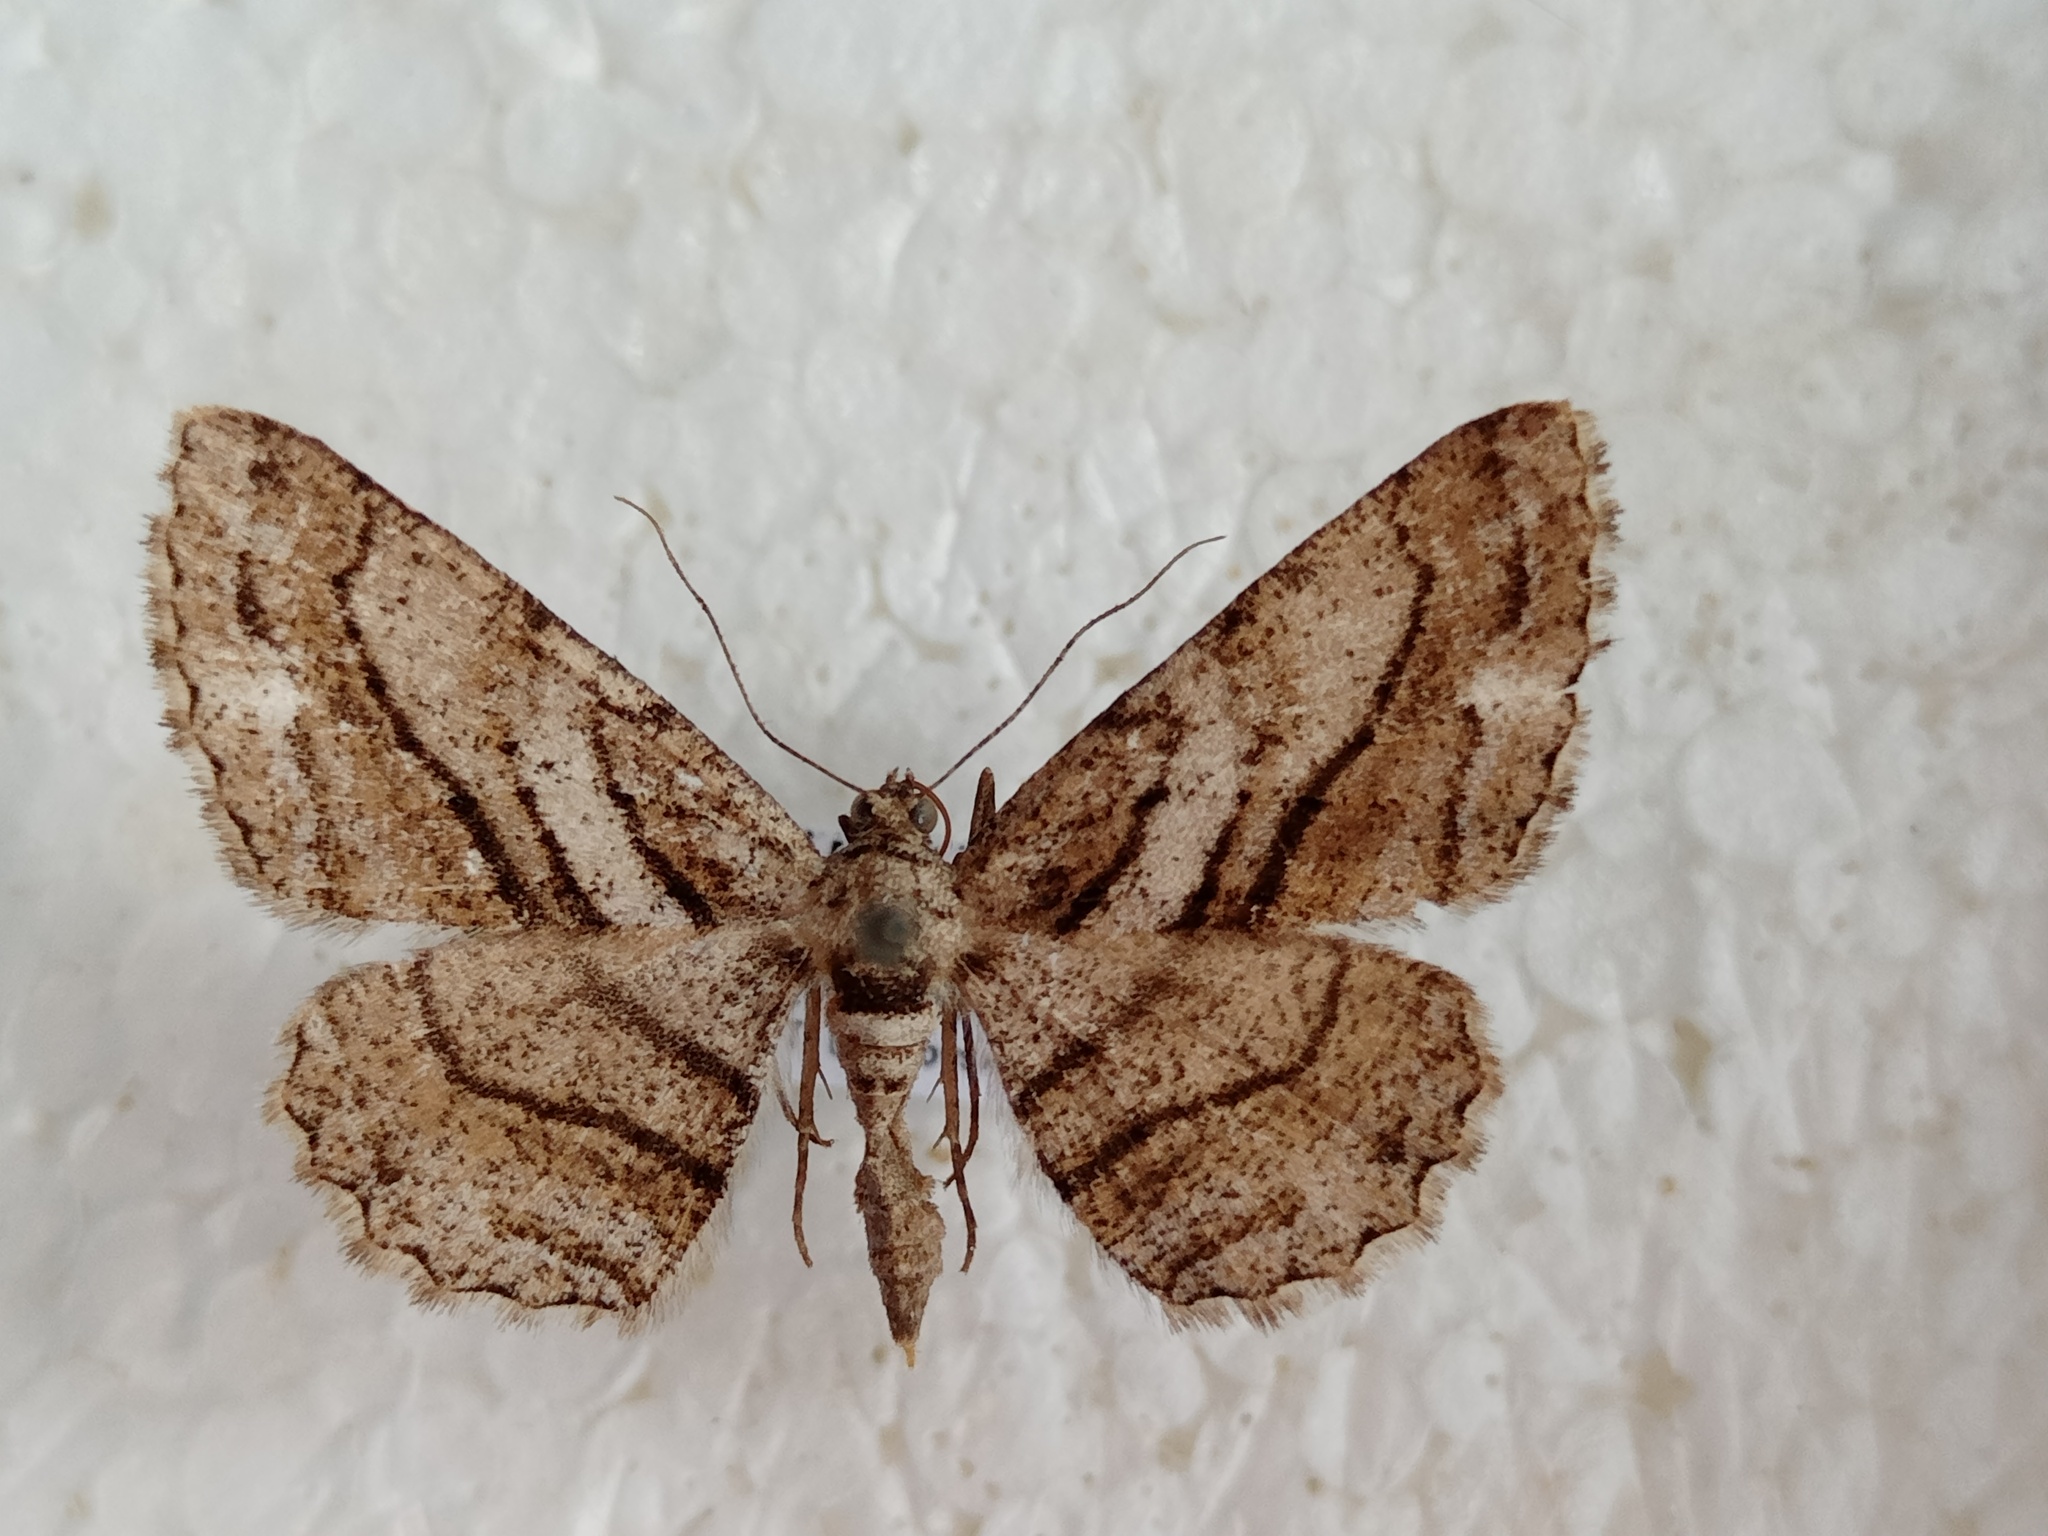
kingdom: Animalia
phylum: Arthropoda
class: Insecta
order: Lepidoptera
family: Geometridae
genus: Peribatodes
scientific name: Peribatodes correptaria
